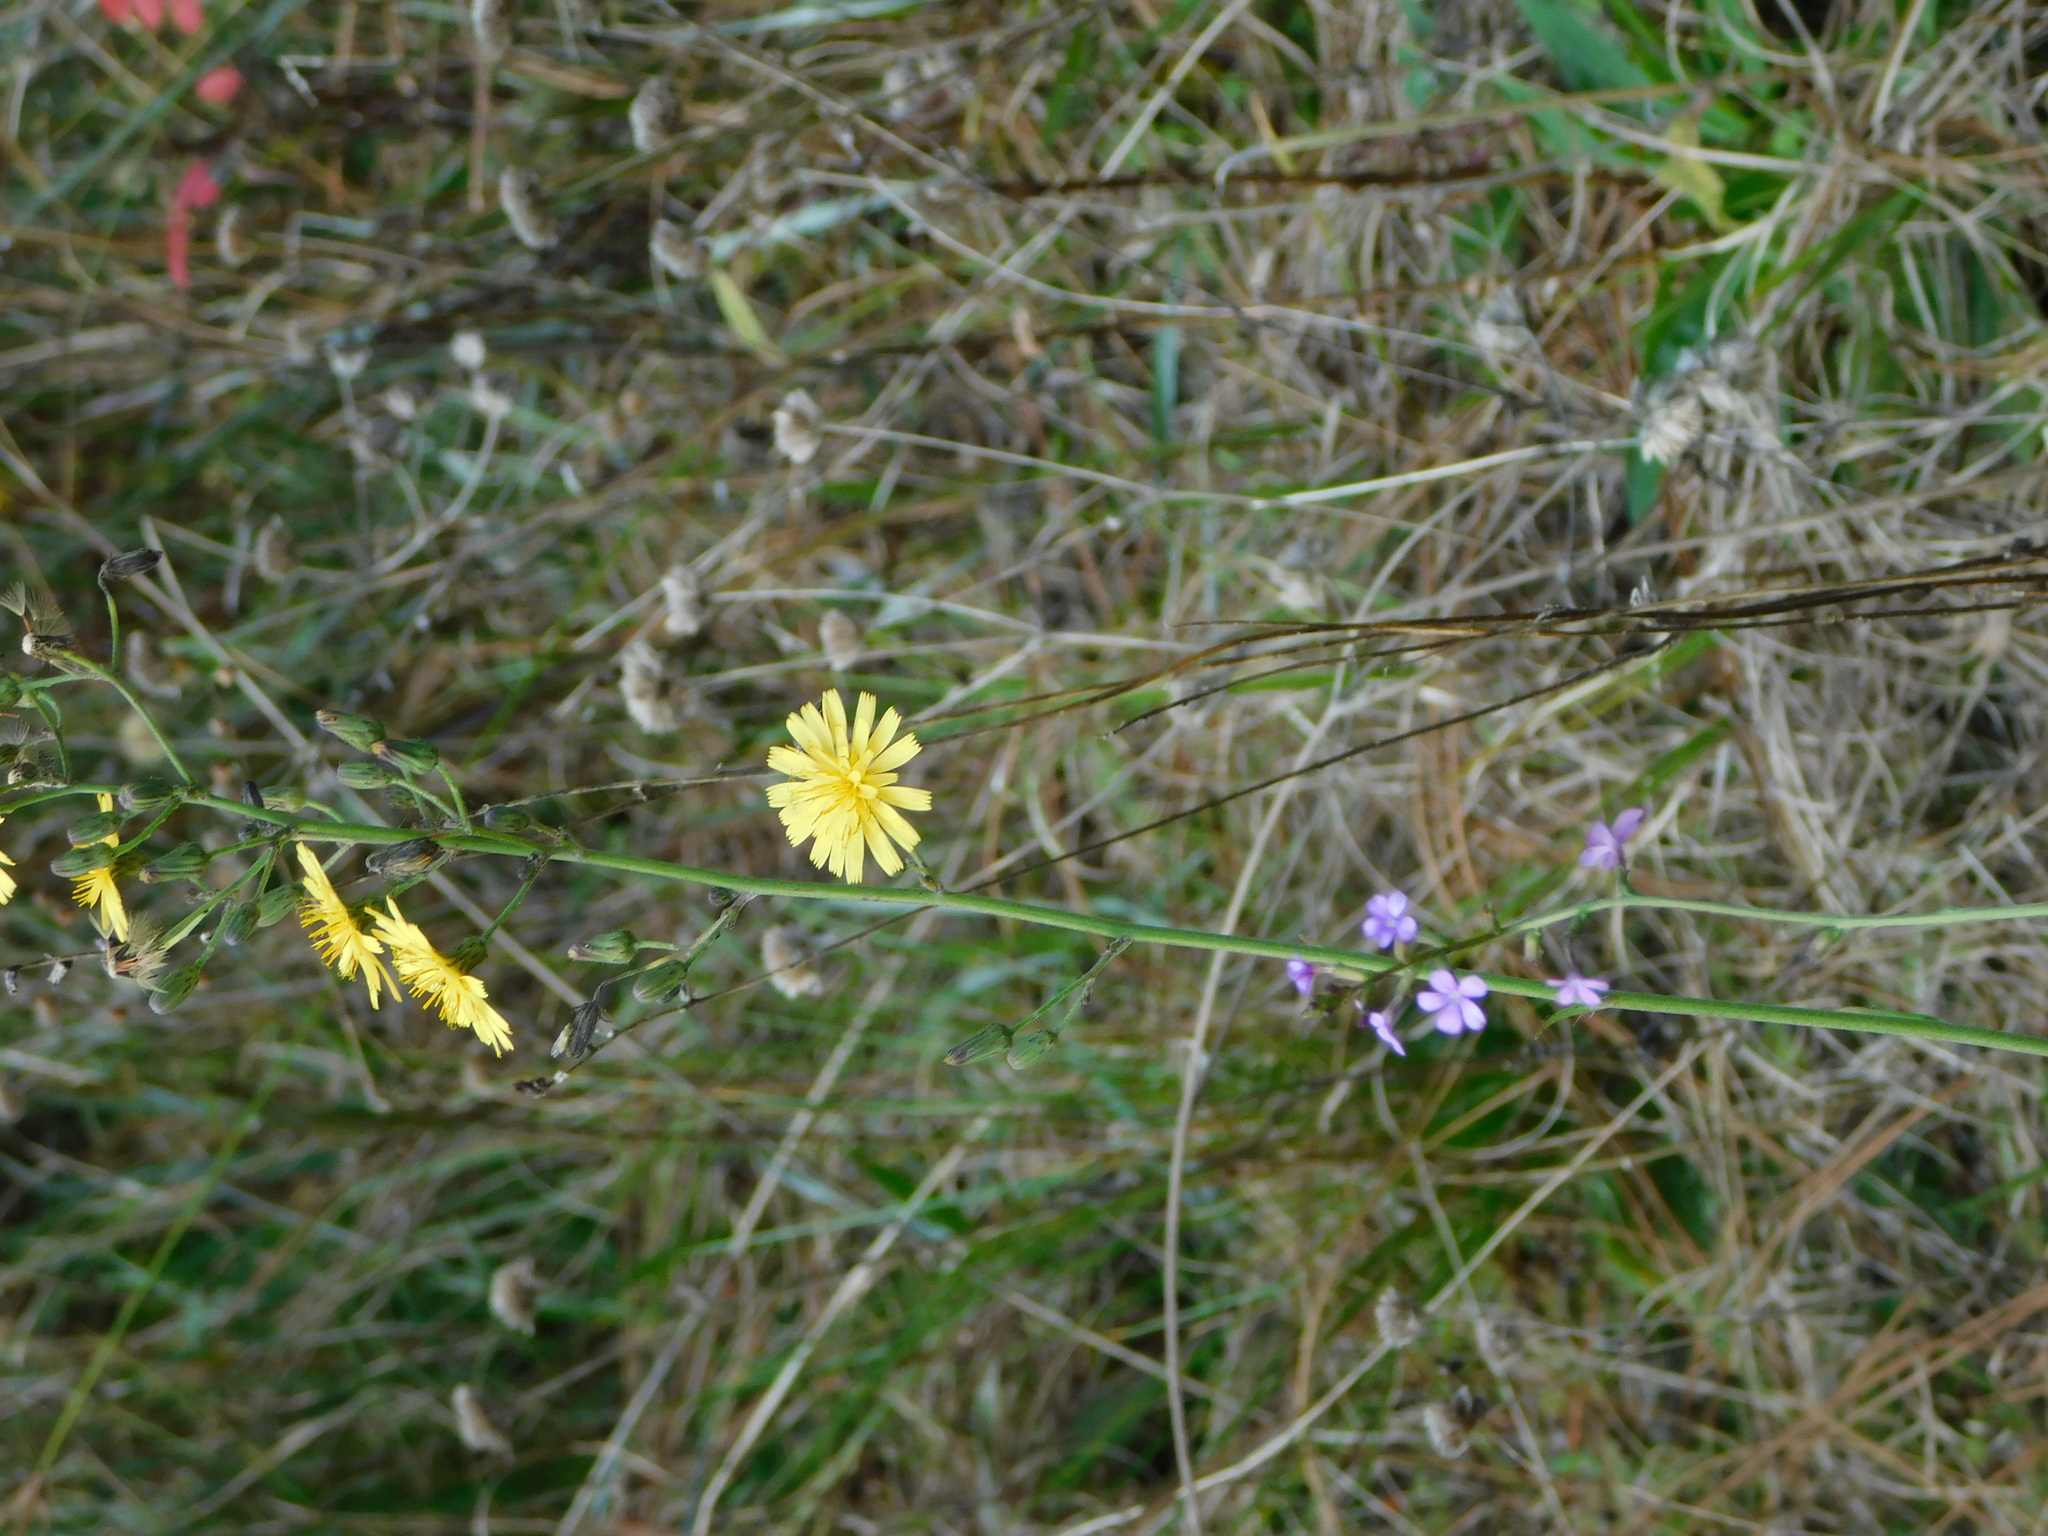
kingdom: Plantae
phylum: Tracheophyta
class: Magnoliopsida
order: Lamiales
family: Orobanchaceae
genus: Buchnera
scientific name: Buchnera floridana
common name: Florida bluehearts
